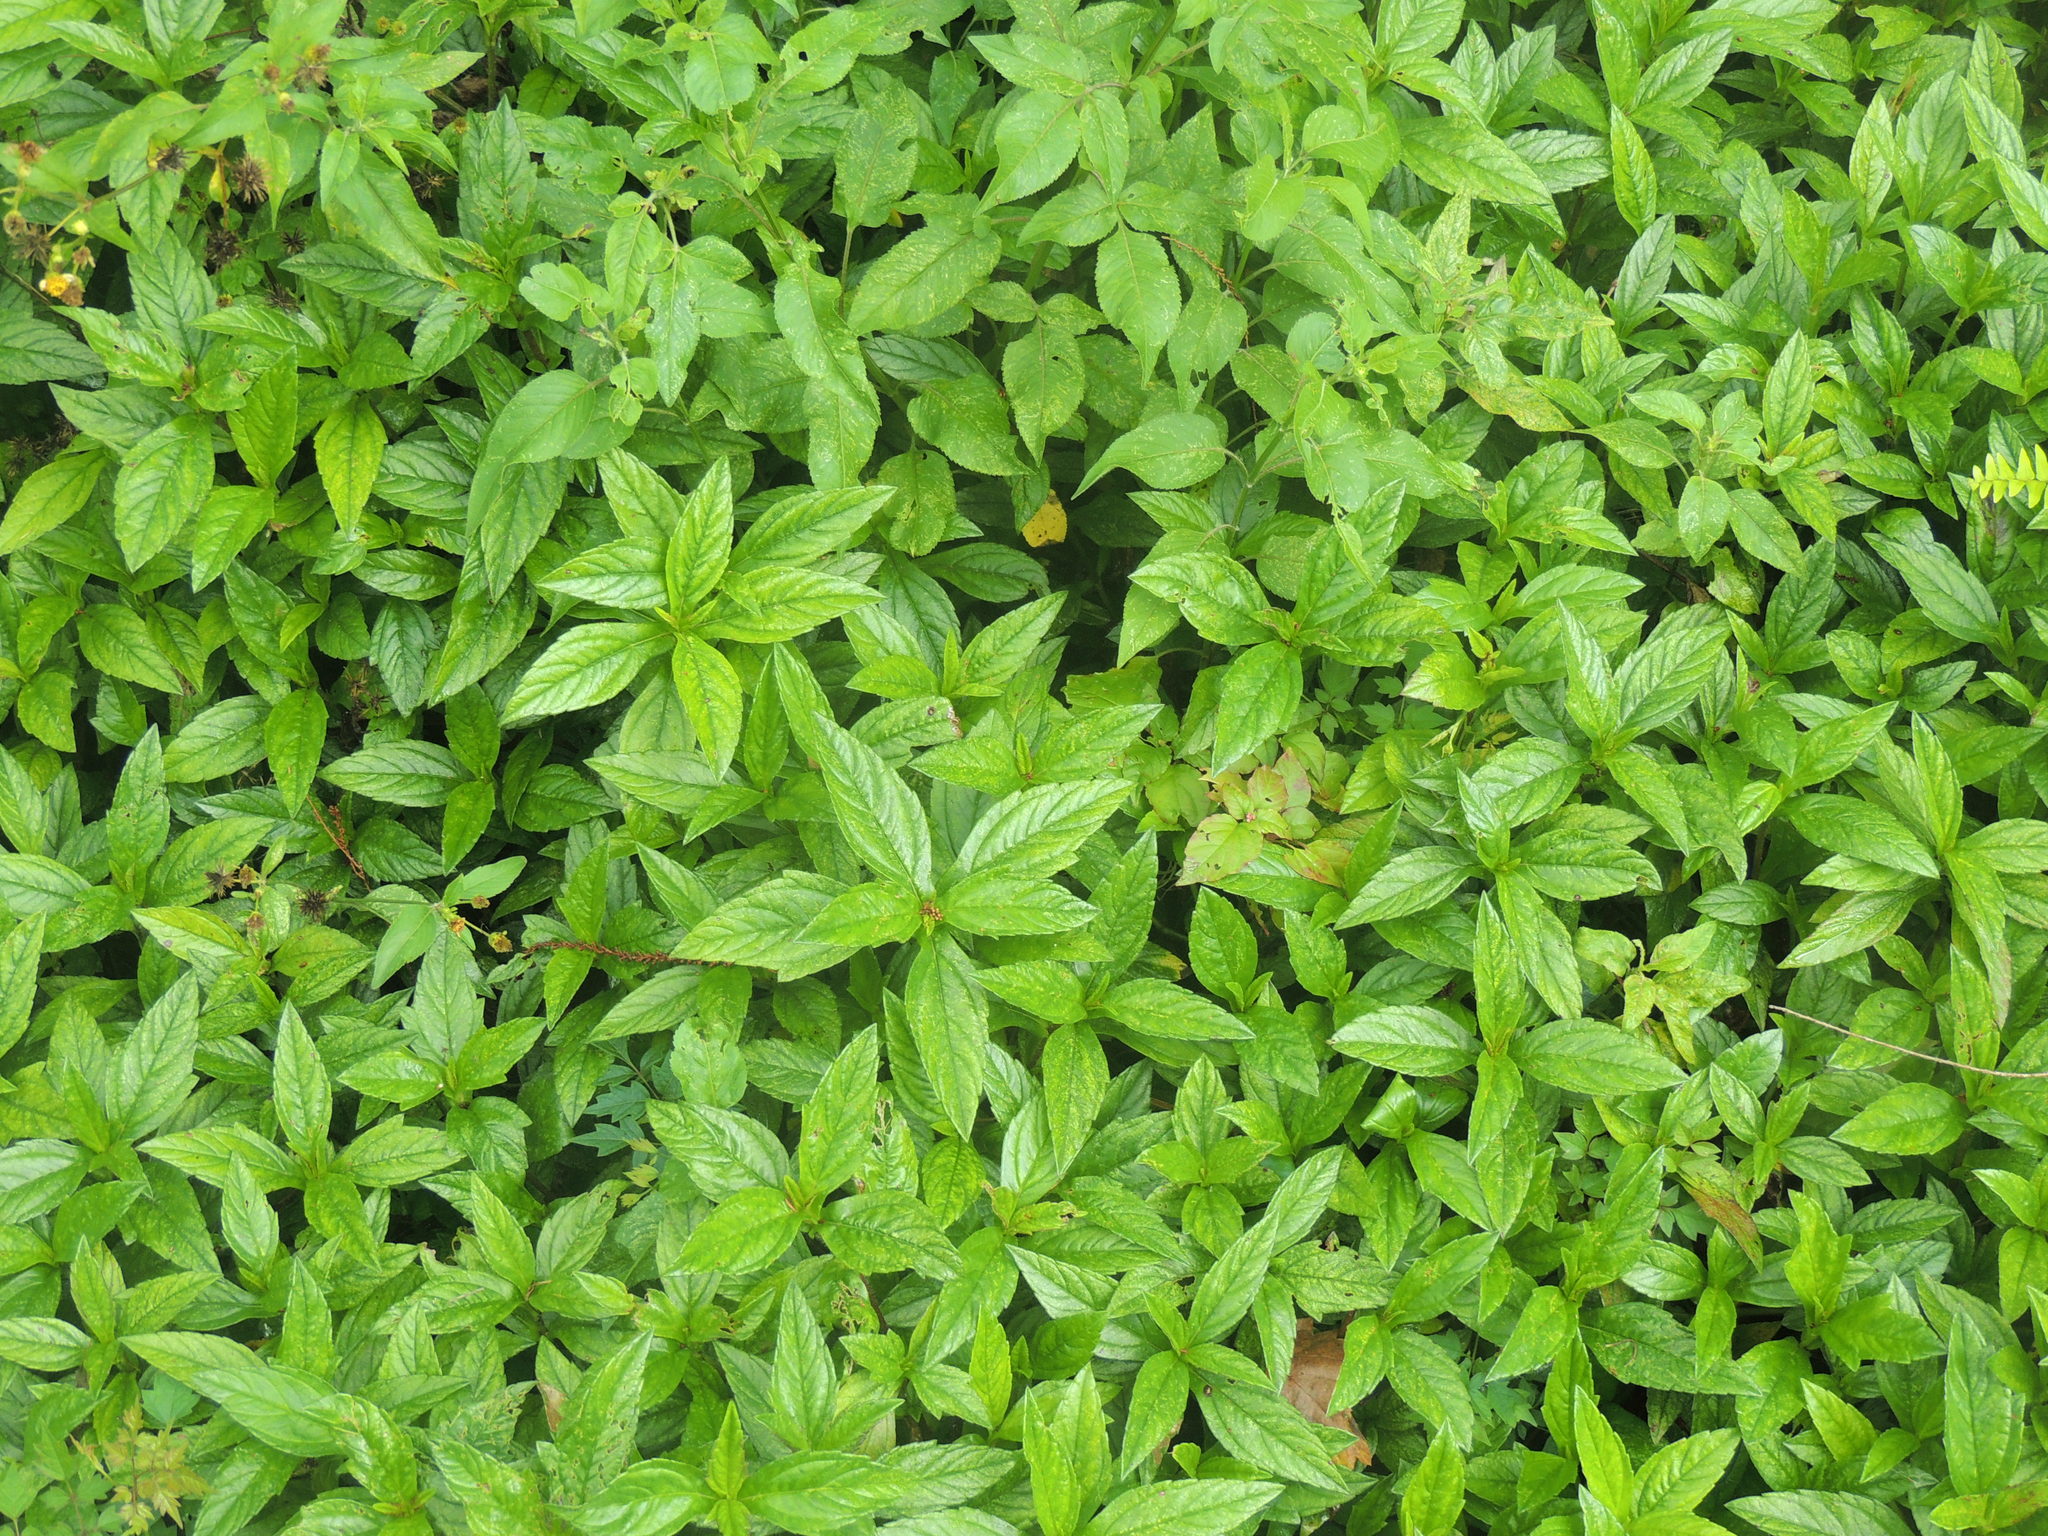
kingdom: Plantae
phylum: Tracheophyta
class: Magnoliopsida
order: Asterales
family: Asteraceae
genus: Sphagneticola
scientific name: Sphagneticola trilobata
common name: Bay biscayne creeping-oxeye
